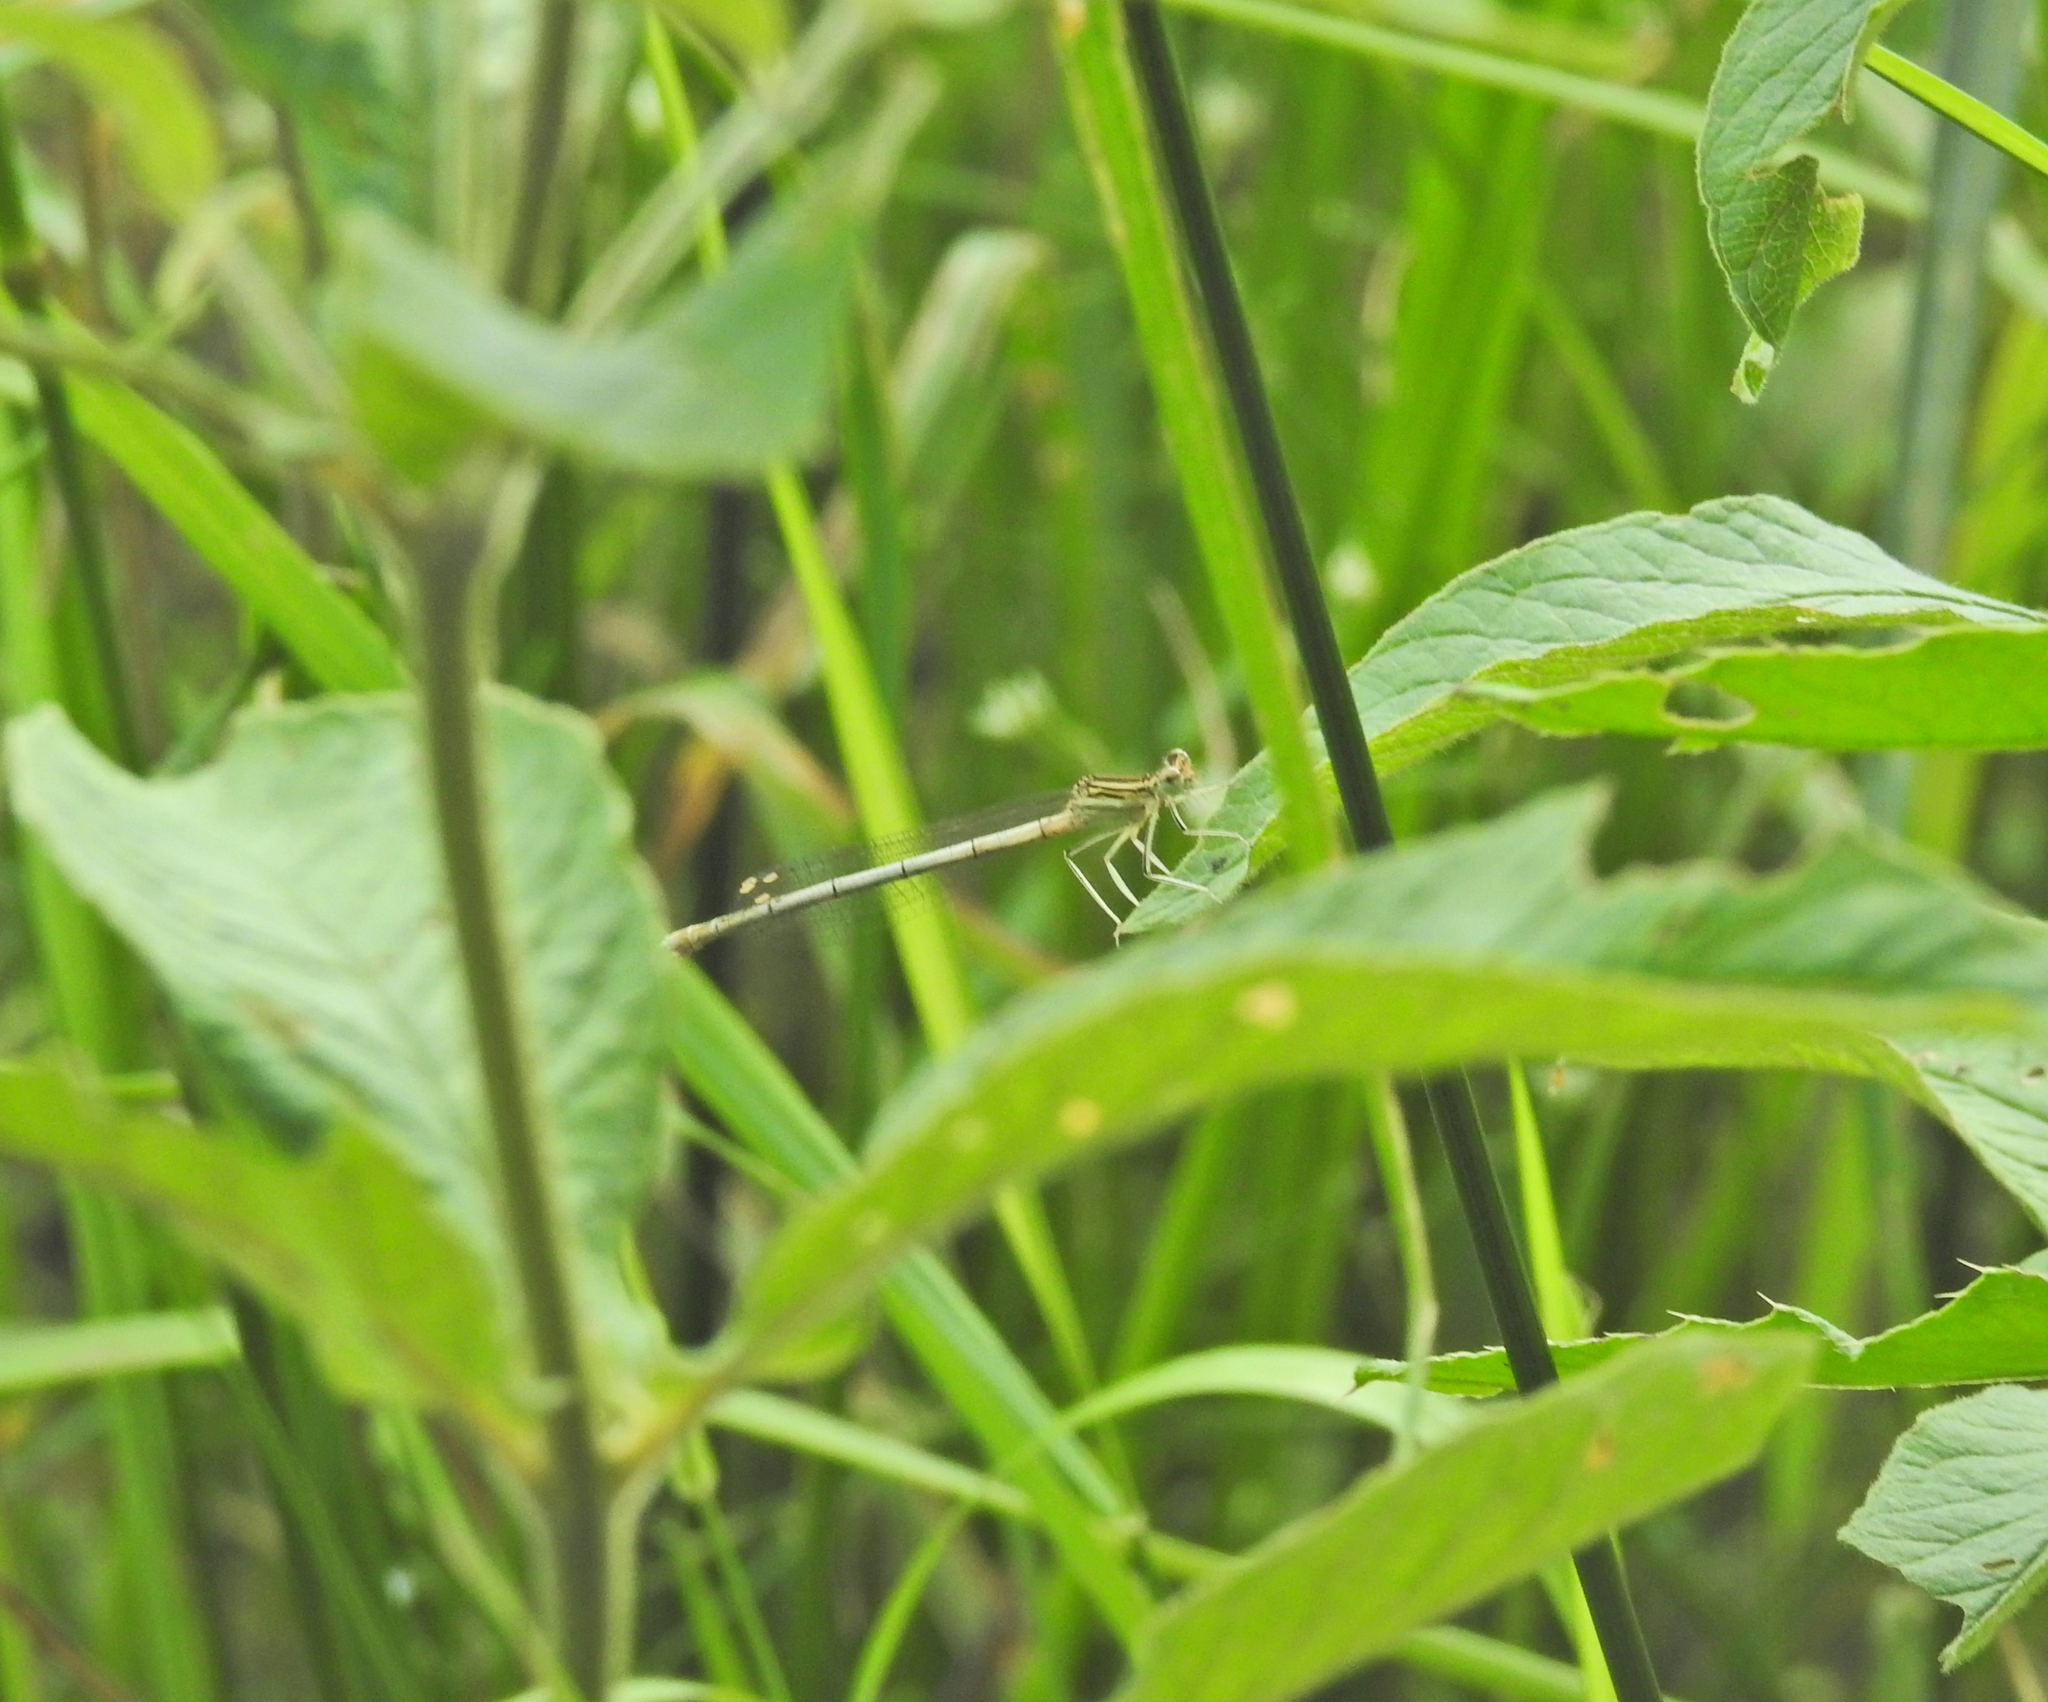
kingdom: Animalia
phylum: Arthropoda
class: Insecta
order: Odonata
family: Platycnemididae
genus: Platycnemis
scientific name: Platycnemis pennipes
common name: White-legged damselfly
